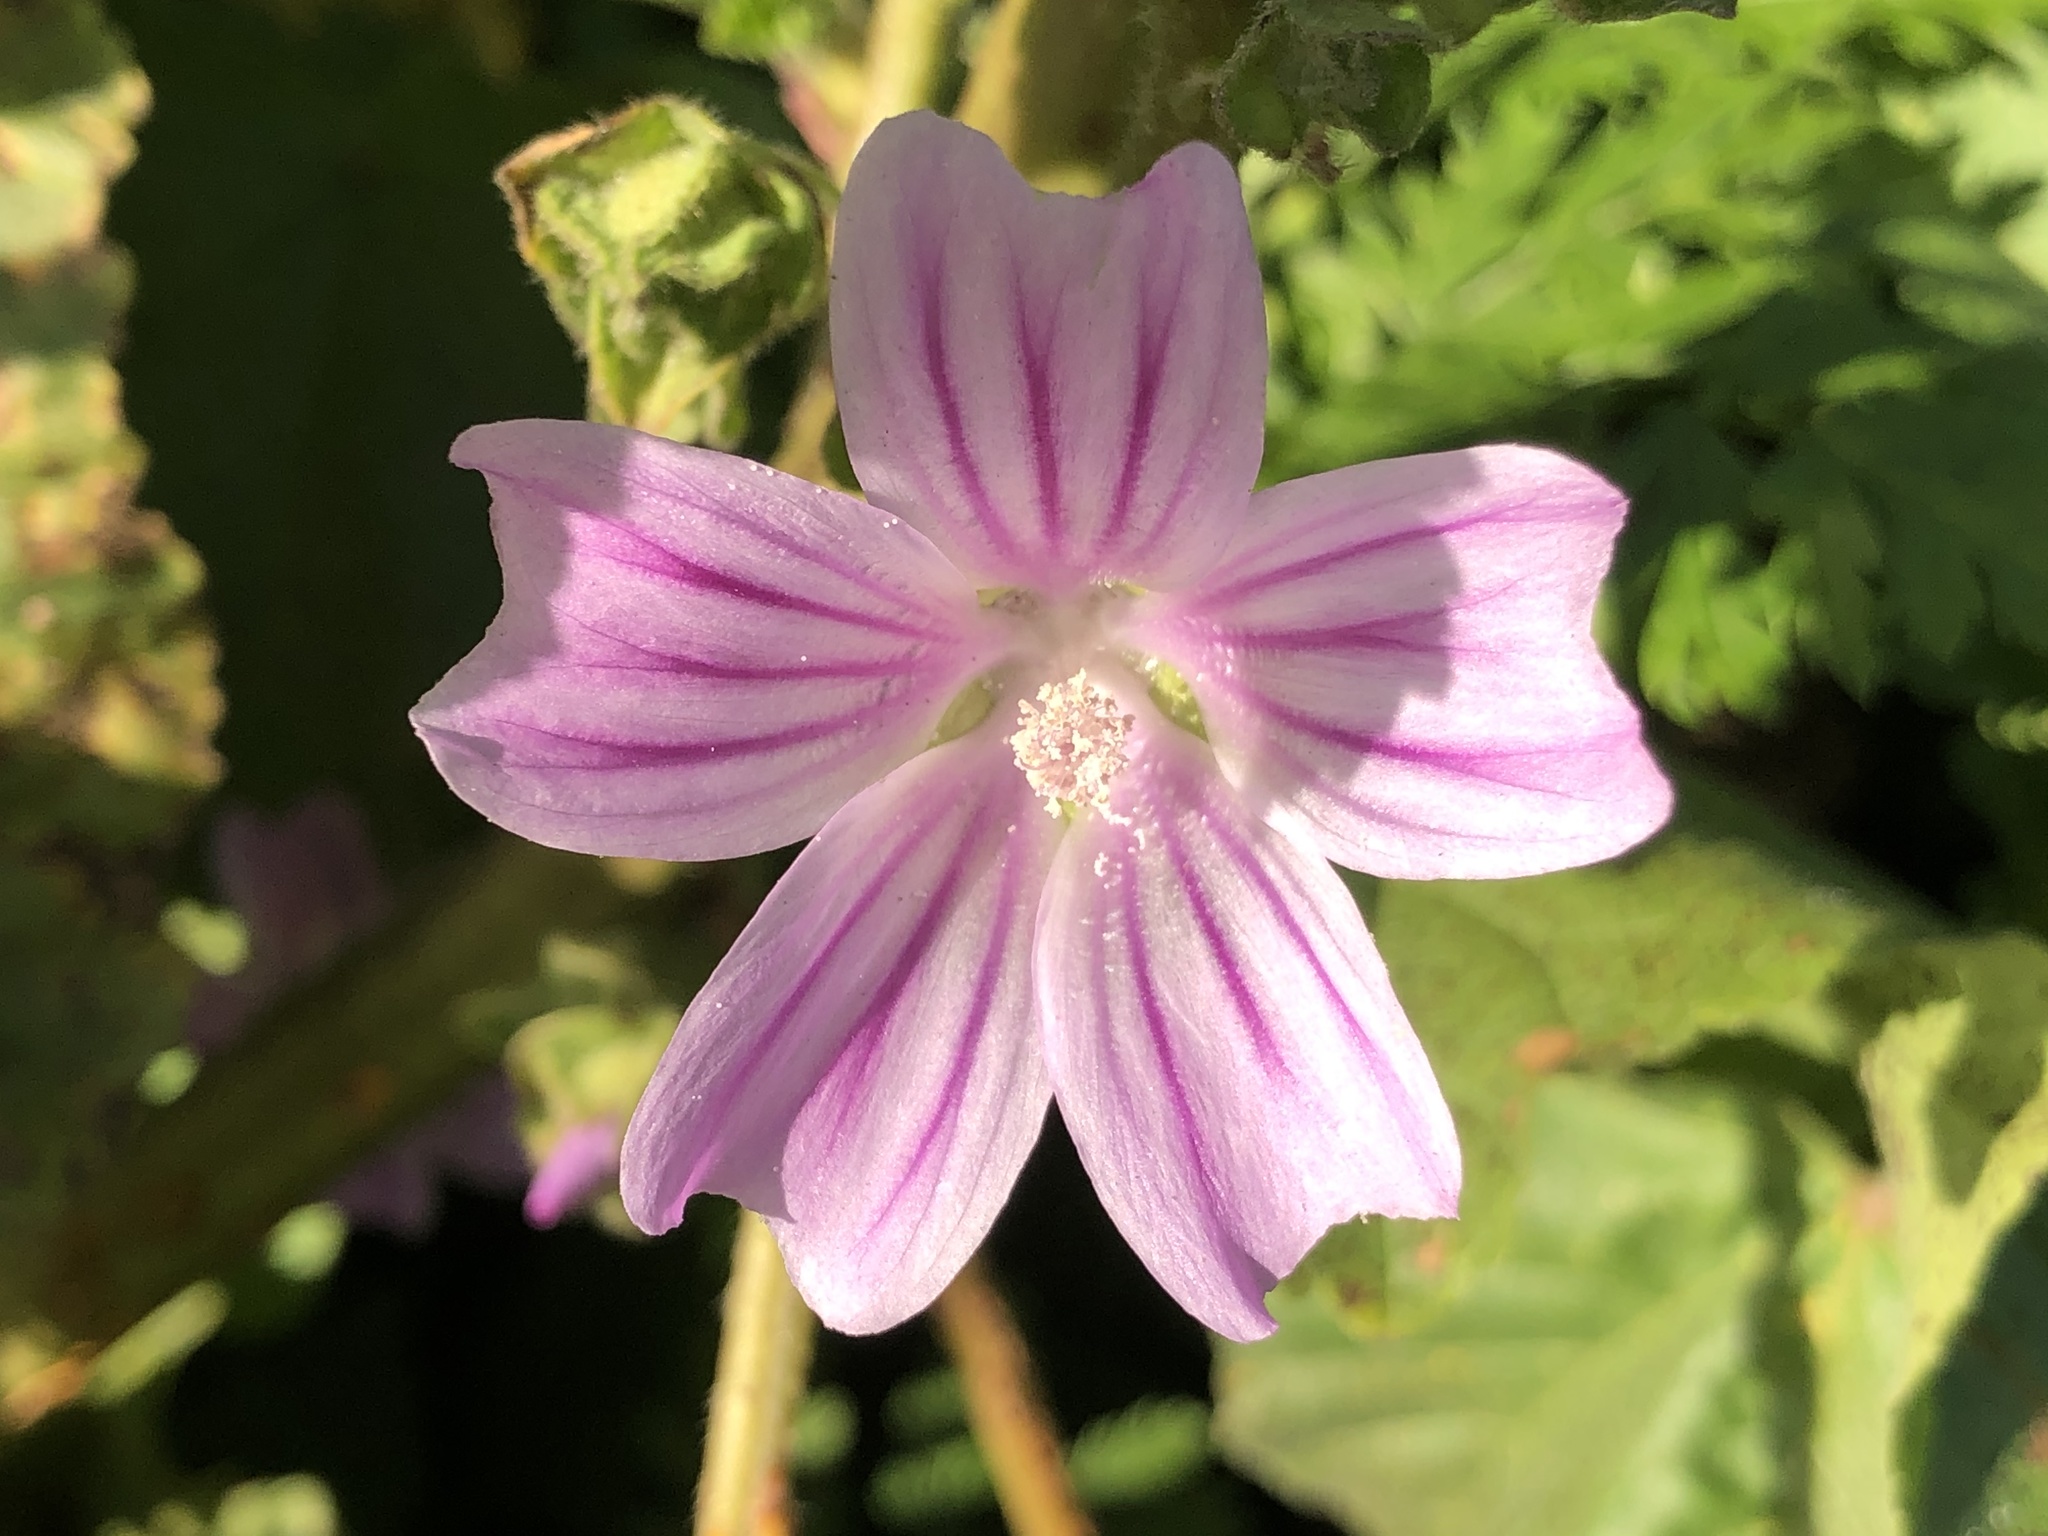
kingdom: Plantae
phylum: Tracheophyta
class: Magnoliopsida
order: Malvales
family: Malvaceae
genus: Malva
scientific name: Malva multiflora
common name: Cheeseweed
